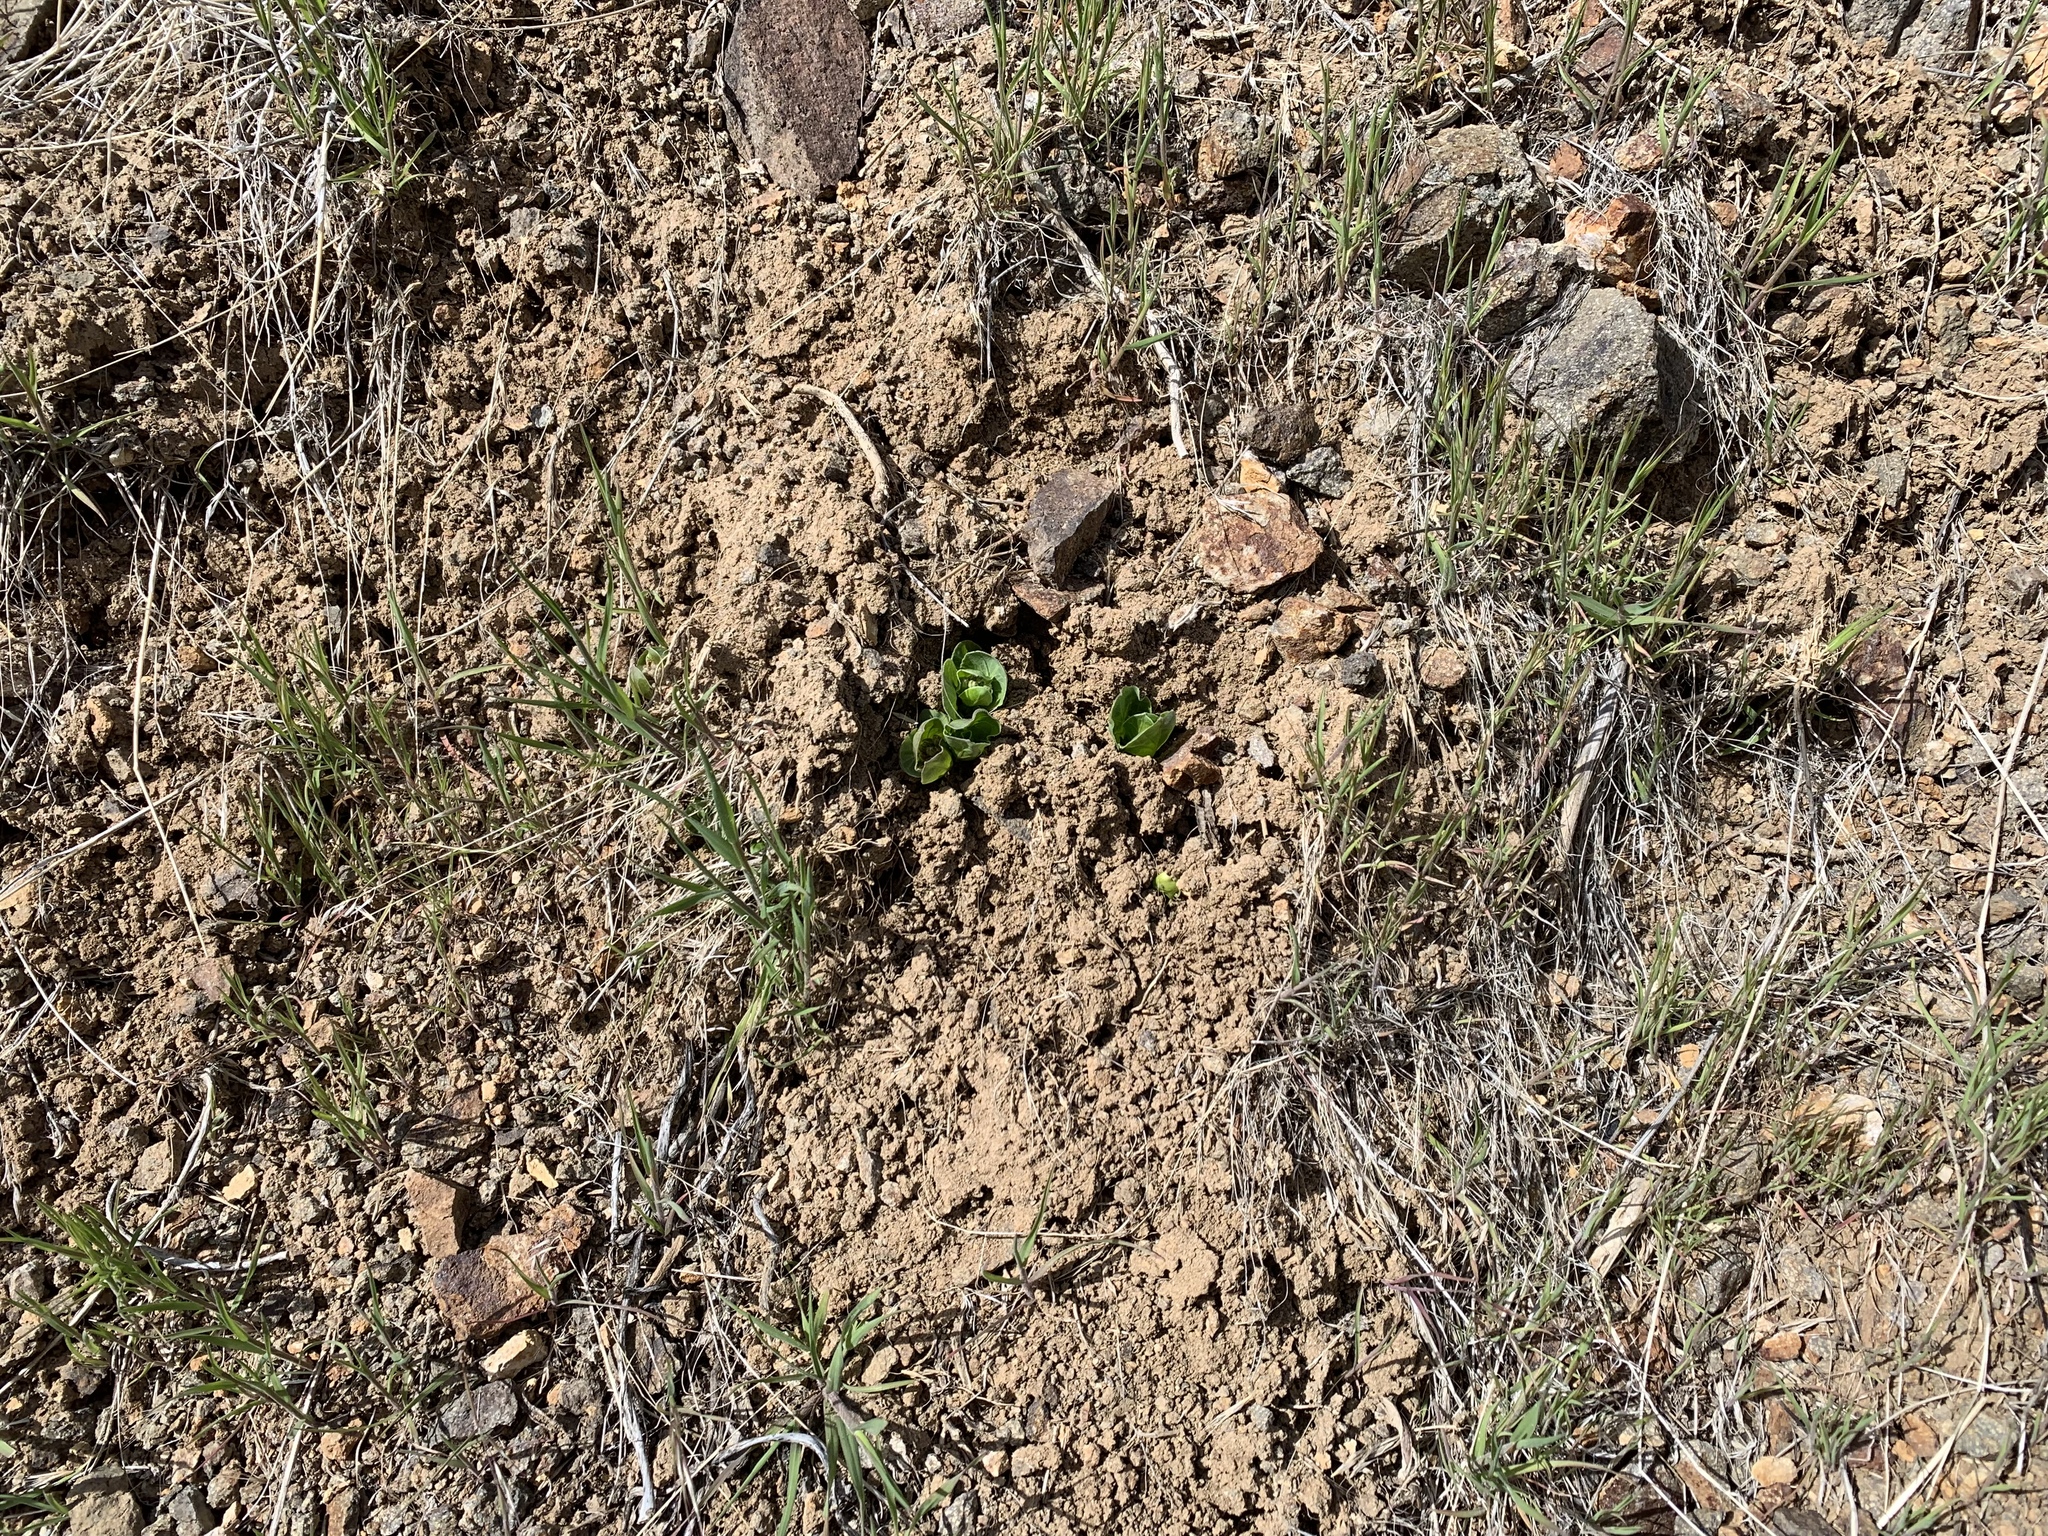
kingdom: Plantae
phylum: Tracheophyta
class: Magnoliopsida
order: Gentianales
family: Apocynaceae
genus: Asclepias
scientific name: Asclepias cryptoceras
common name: Humboldt mountains milkweed
